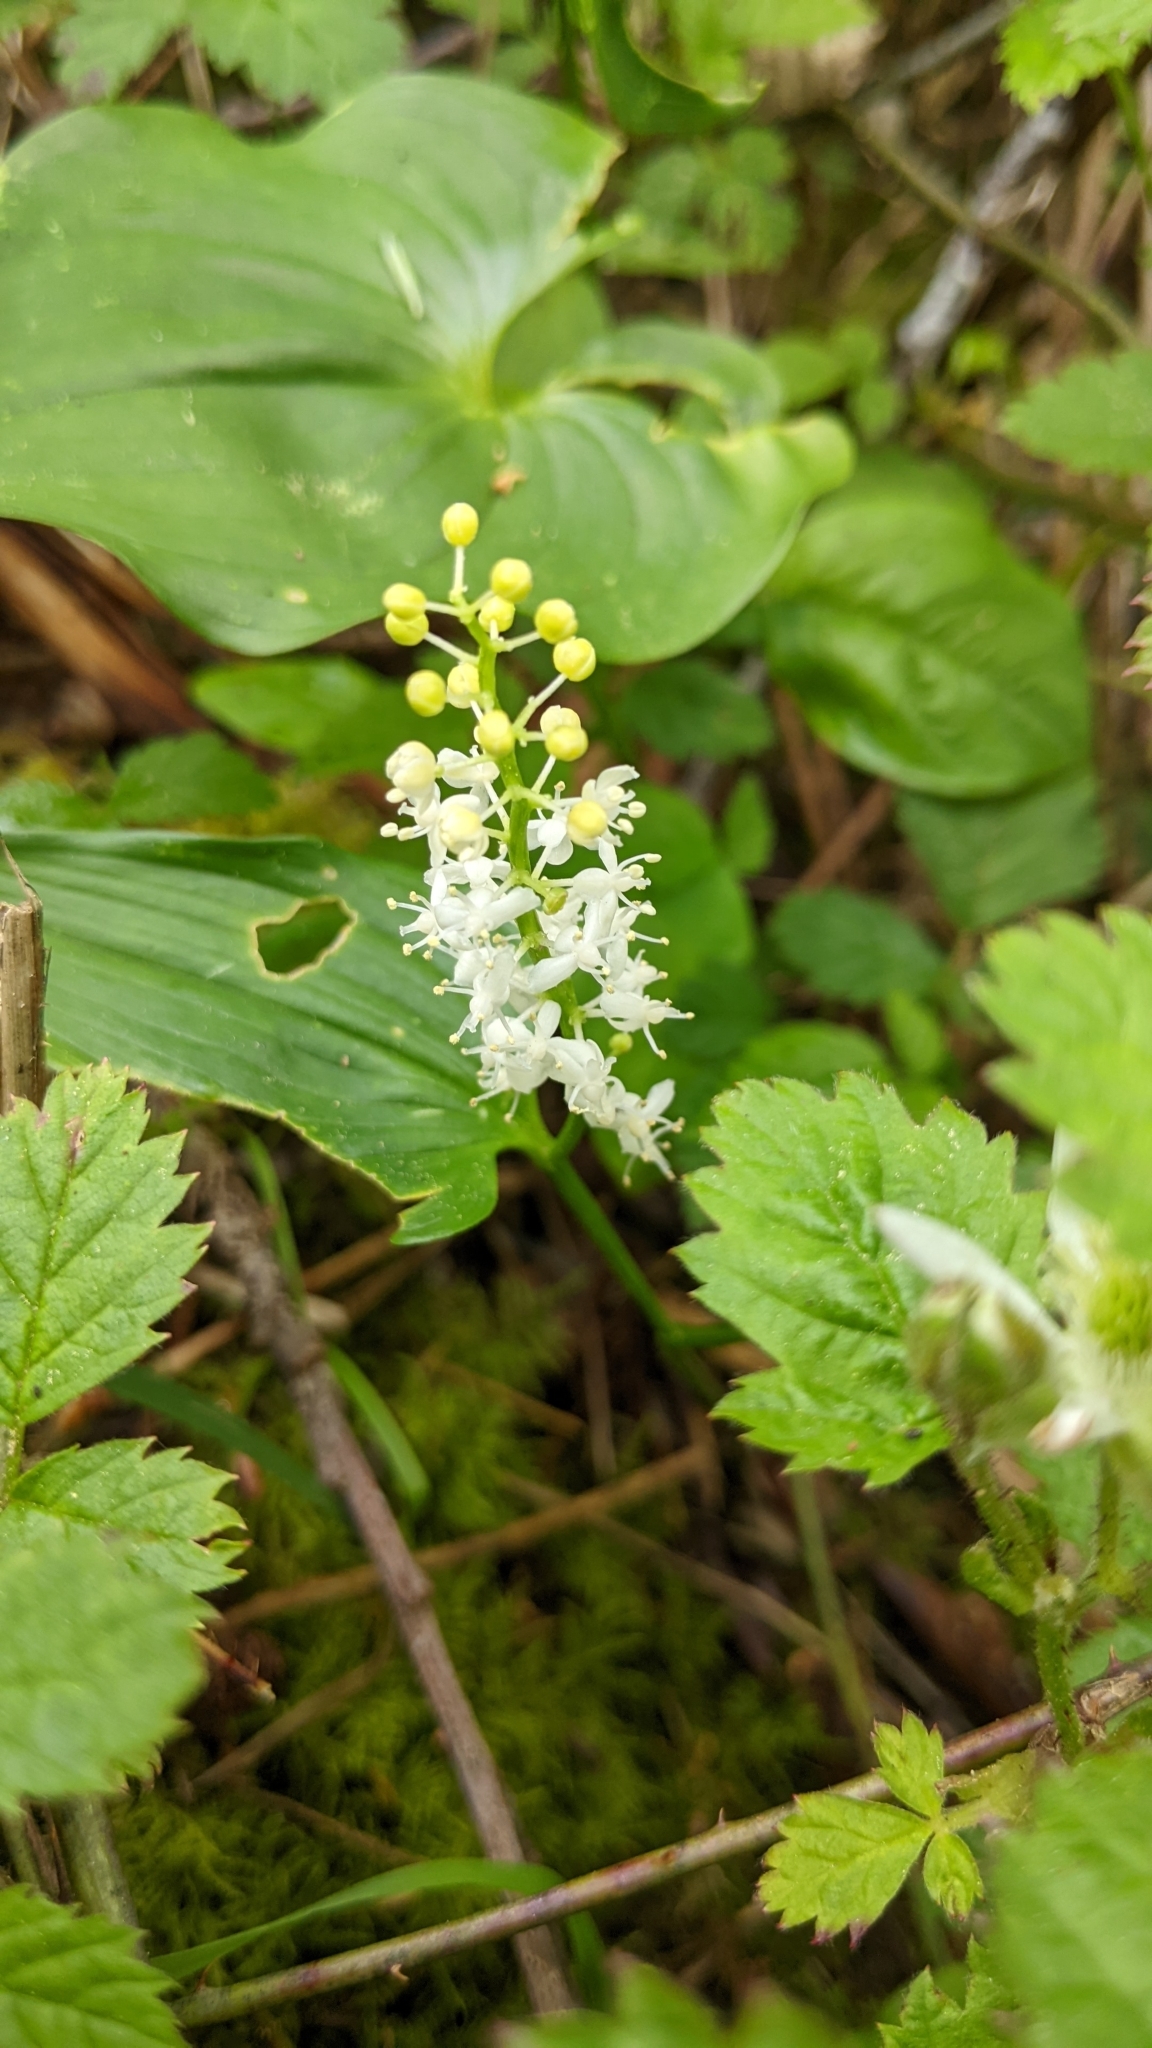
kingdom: Plantae
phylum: Tracheophyta
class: Liliopsida
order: Asparagales
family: Asparagaceae
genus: Maianthemum
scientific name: Maianthemum dilatatum
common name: False lily-of-the-valley
